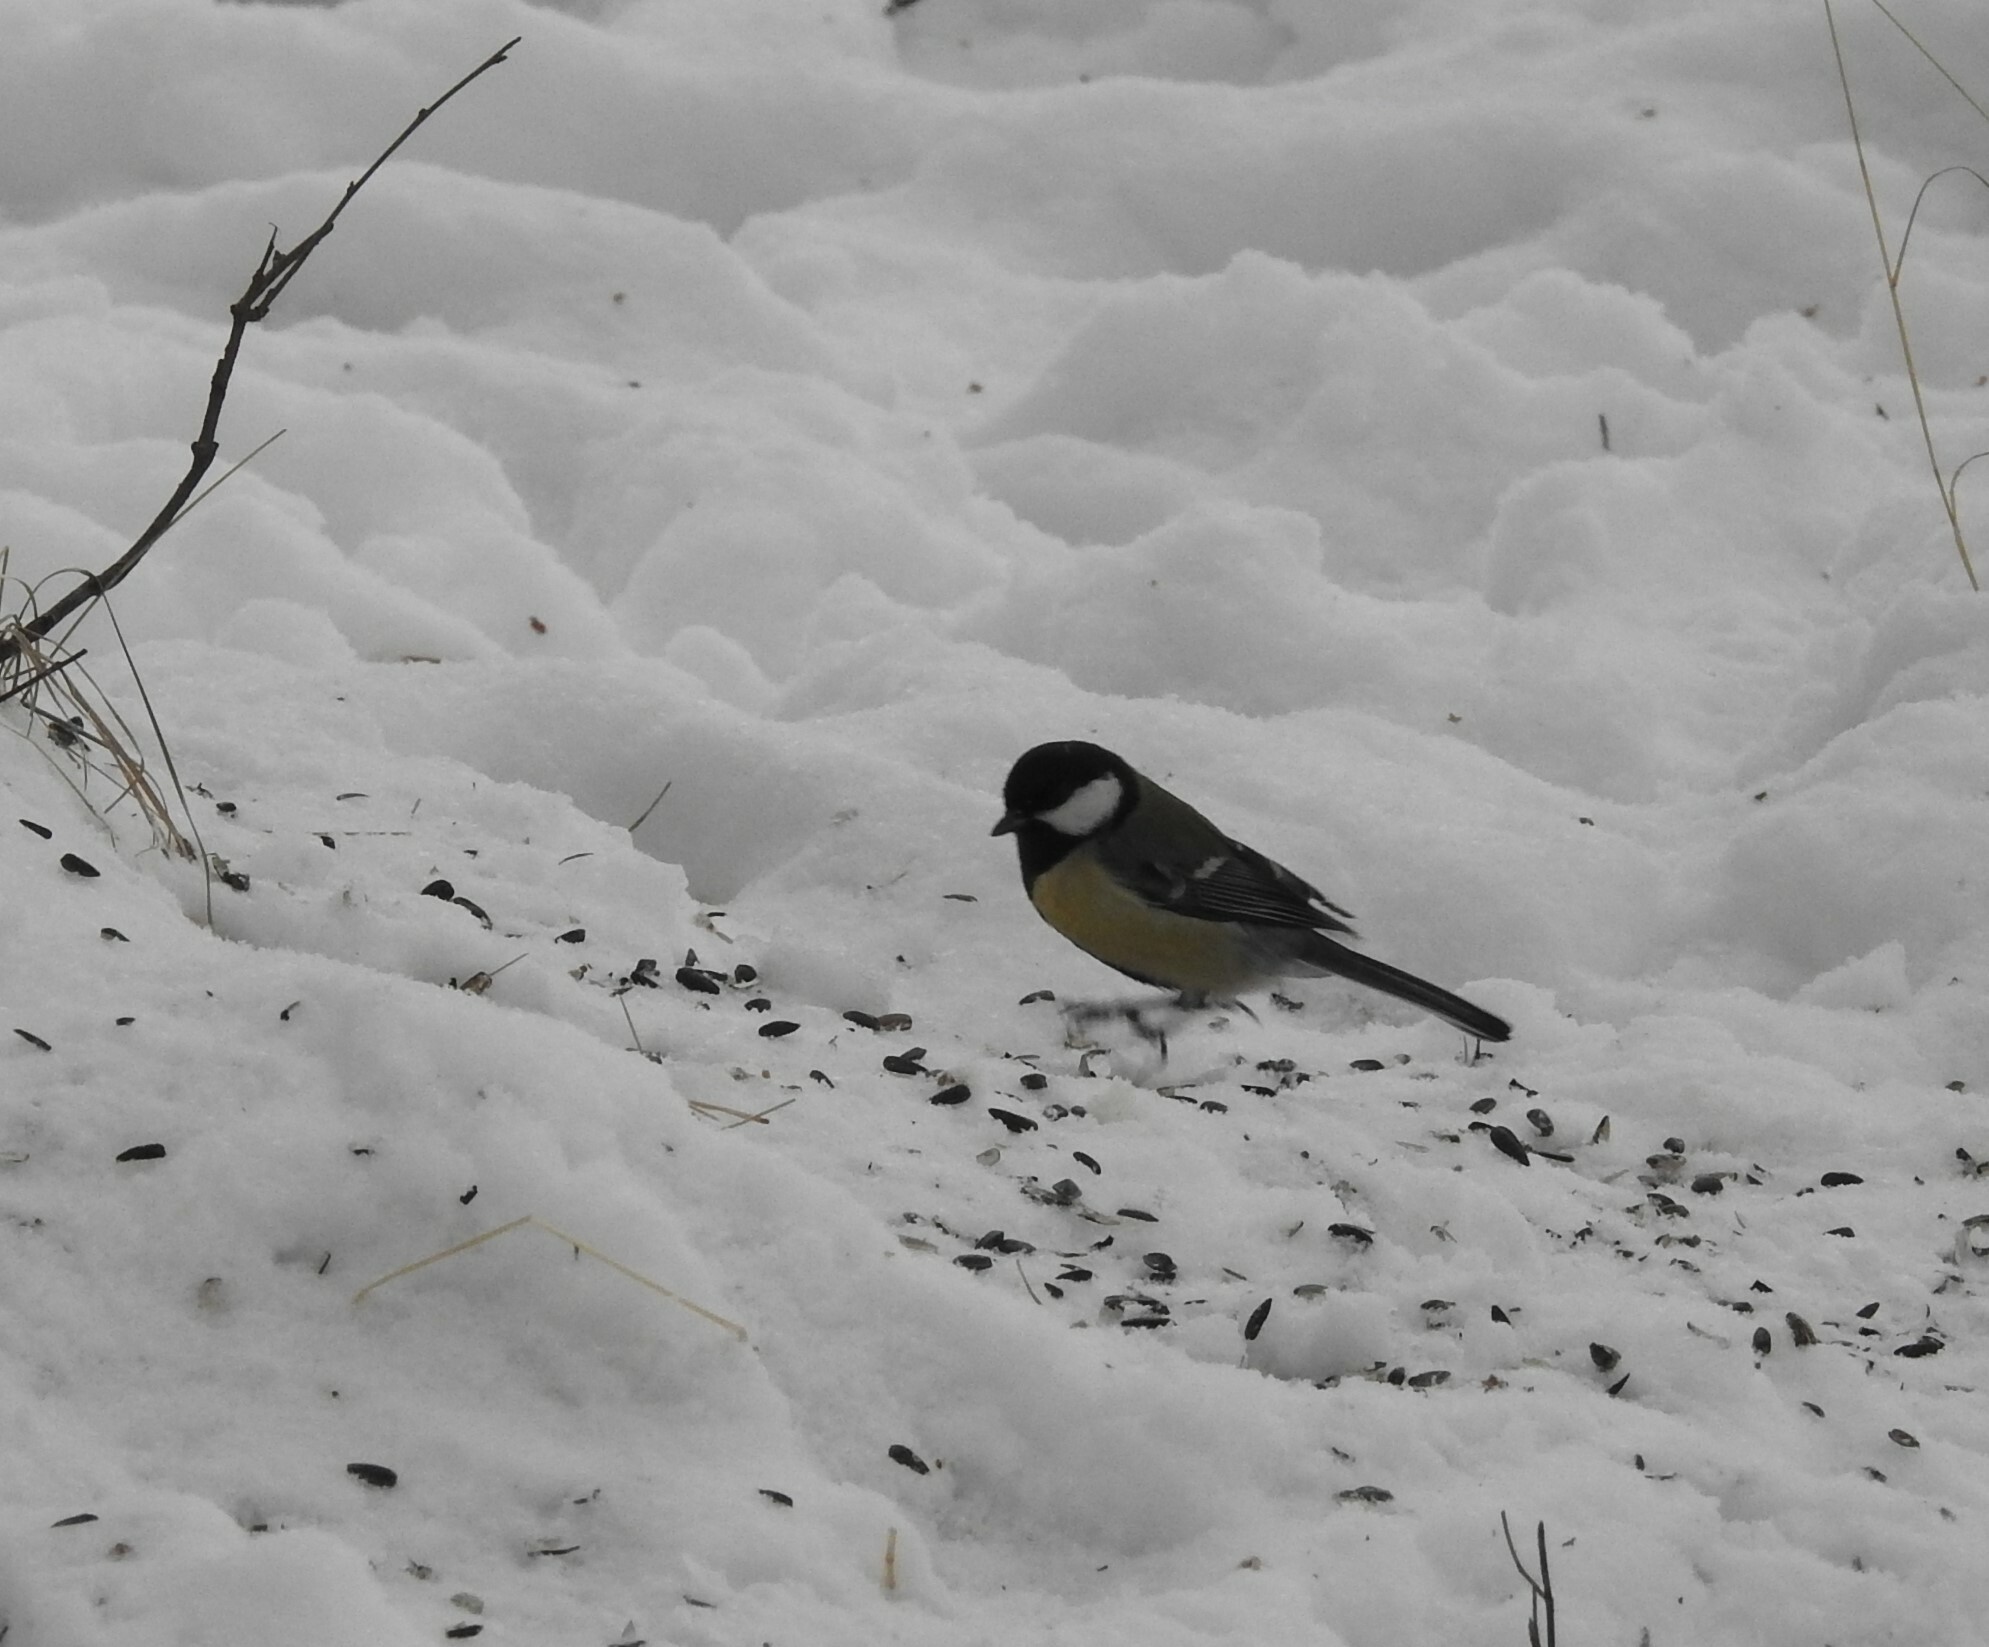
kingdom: Animalia
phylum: Chordata
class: Aves
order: Passeriformes
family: Paridae
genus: Parus
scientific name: Parus major
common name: Great tit
